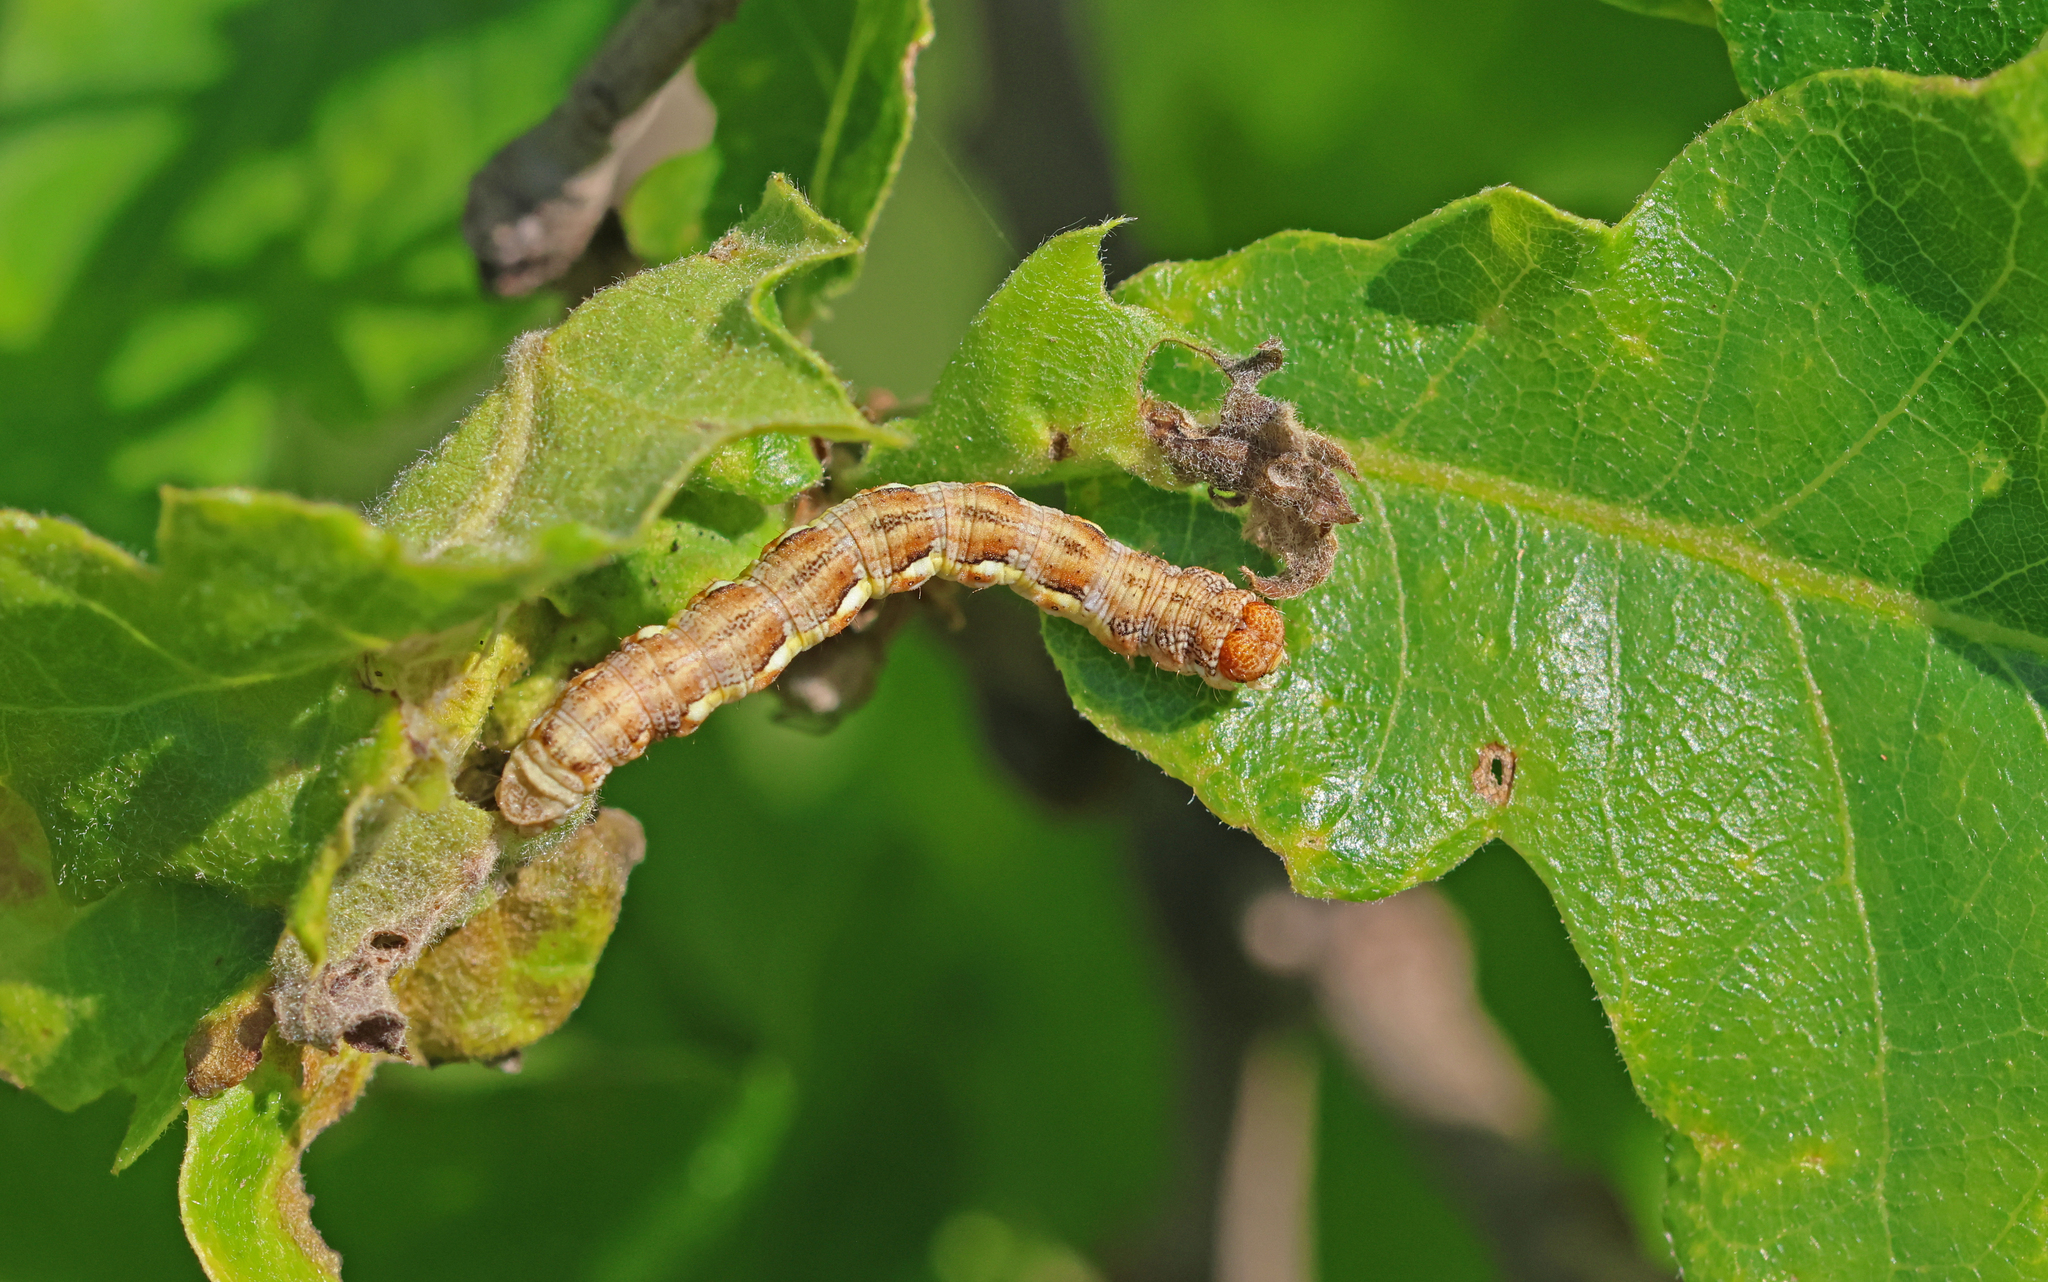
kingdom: Animalia
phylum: Arthropoda
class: Insecta
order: Lepidoptera
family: Geometridae
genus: Erannis
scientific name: Erannis defoliaria
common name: Mottled umber
